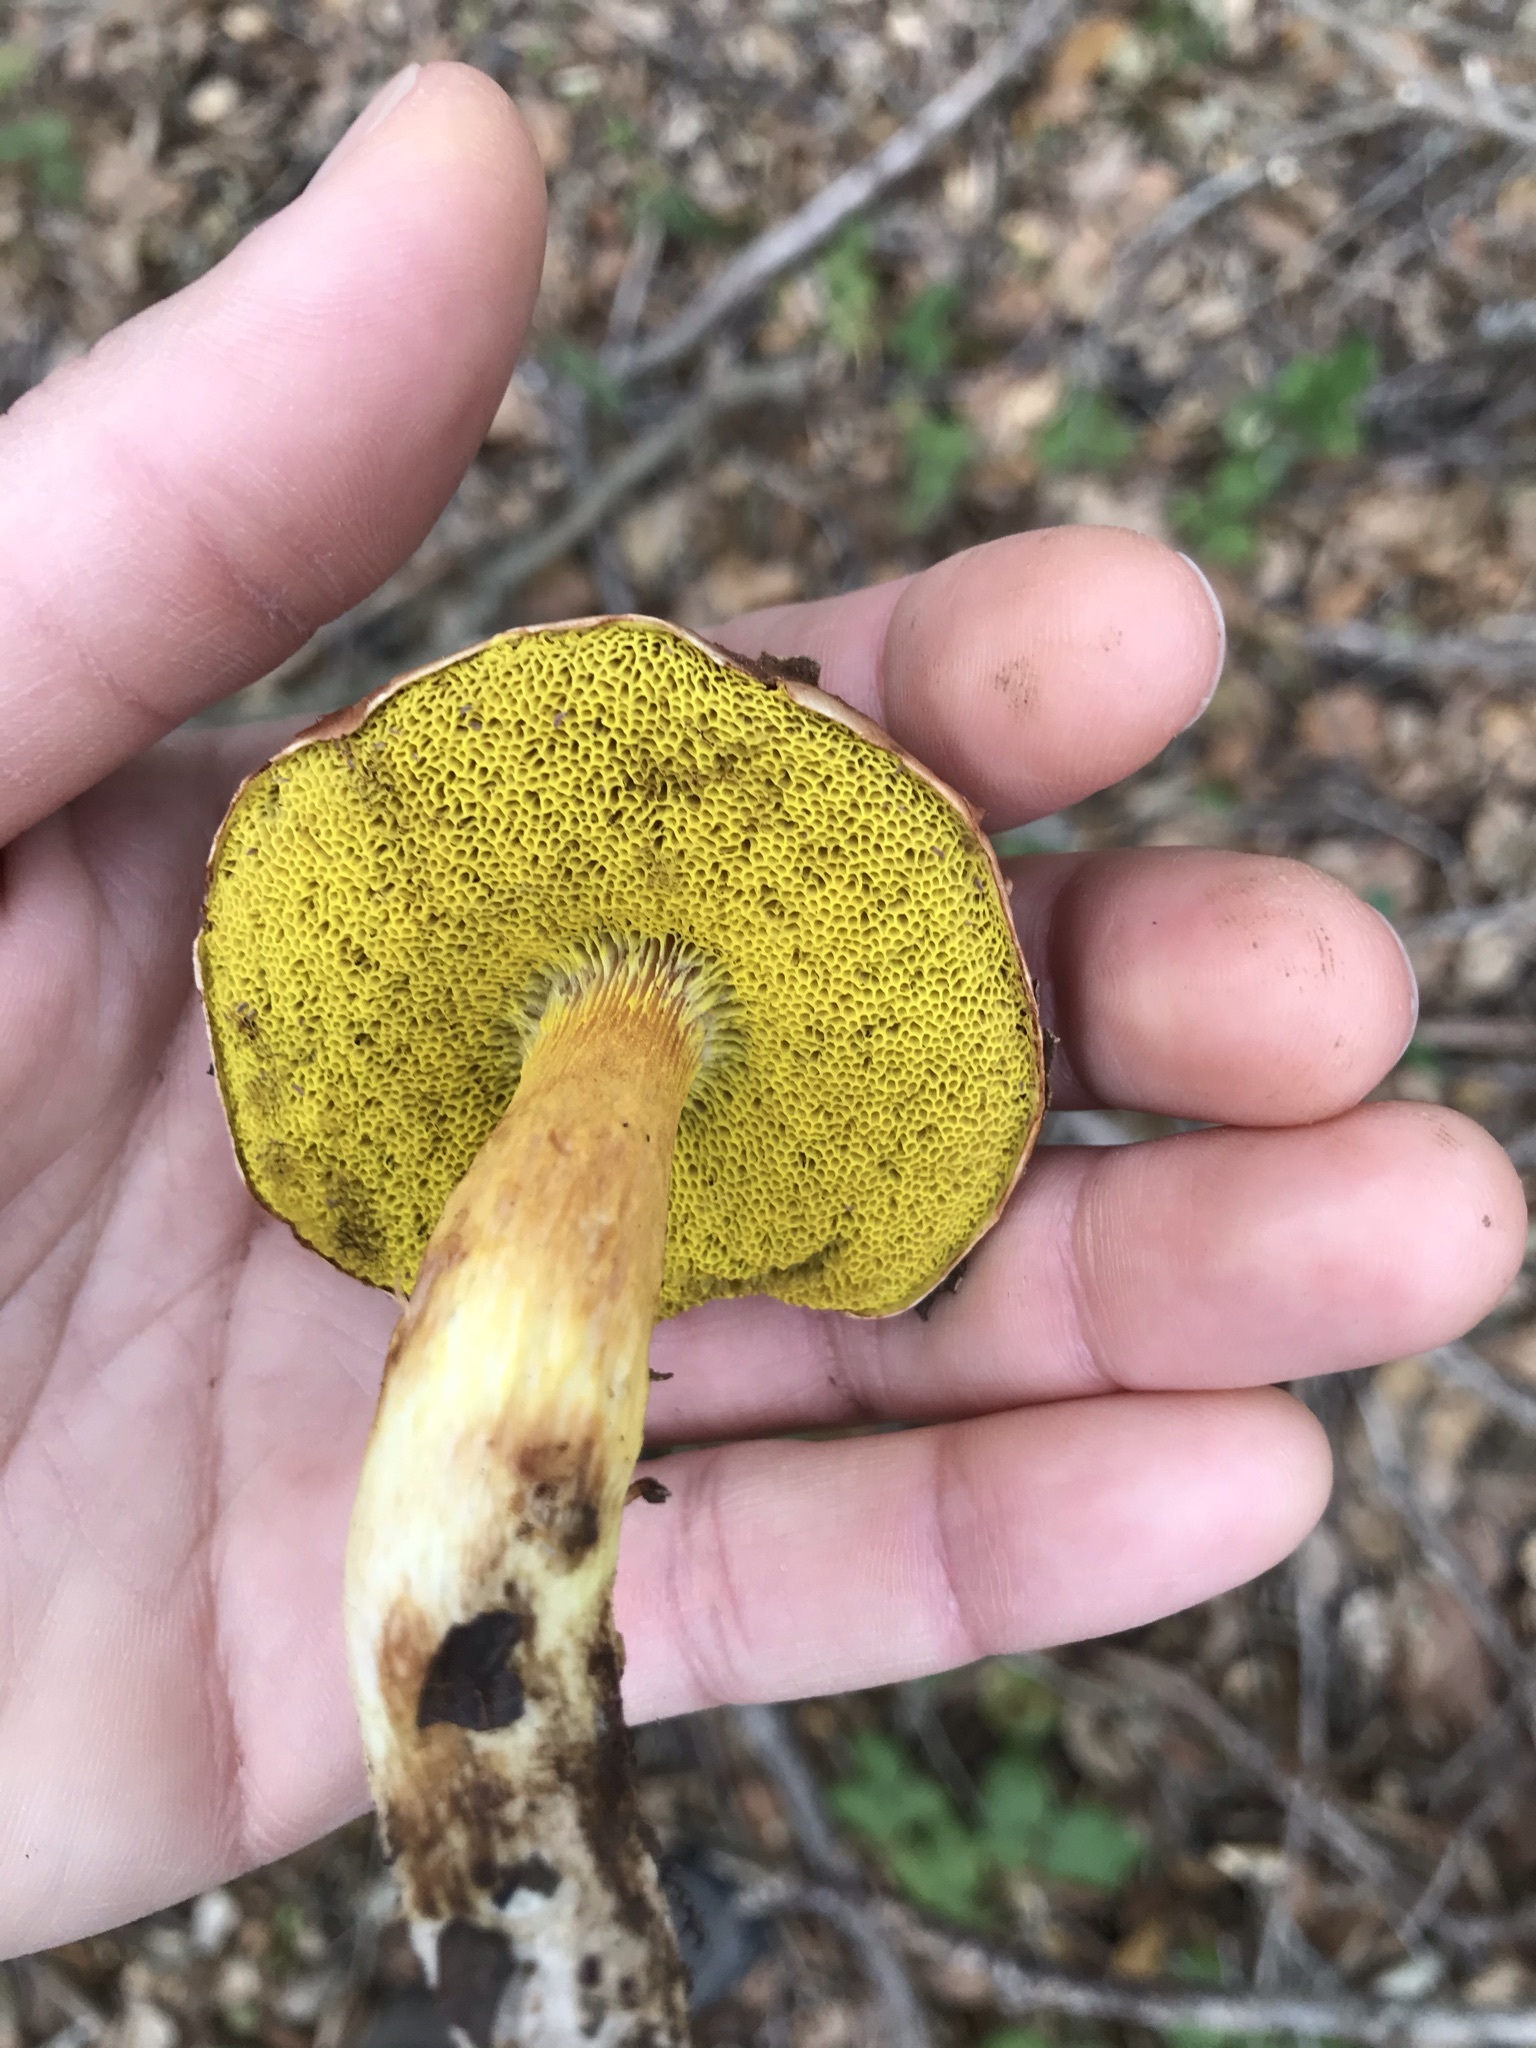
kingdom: Fungi
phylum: Basidiomycota
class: Agaricomycetes
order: Boletales
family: Boletaceae
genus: Aureoboletus
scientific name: Aureoboletus flaviporus
